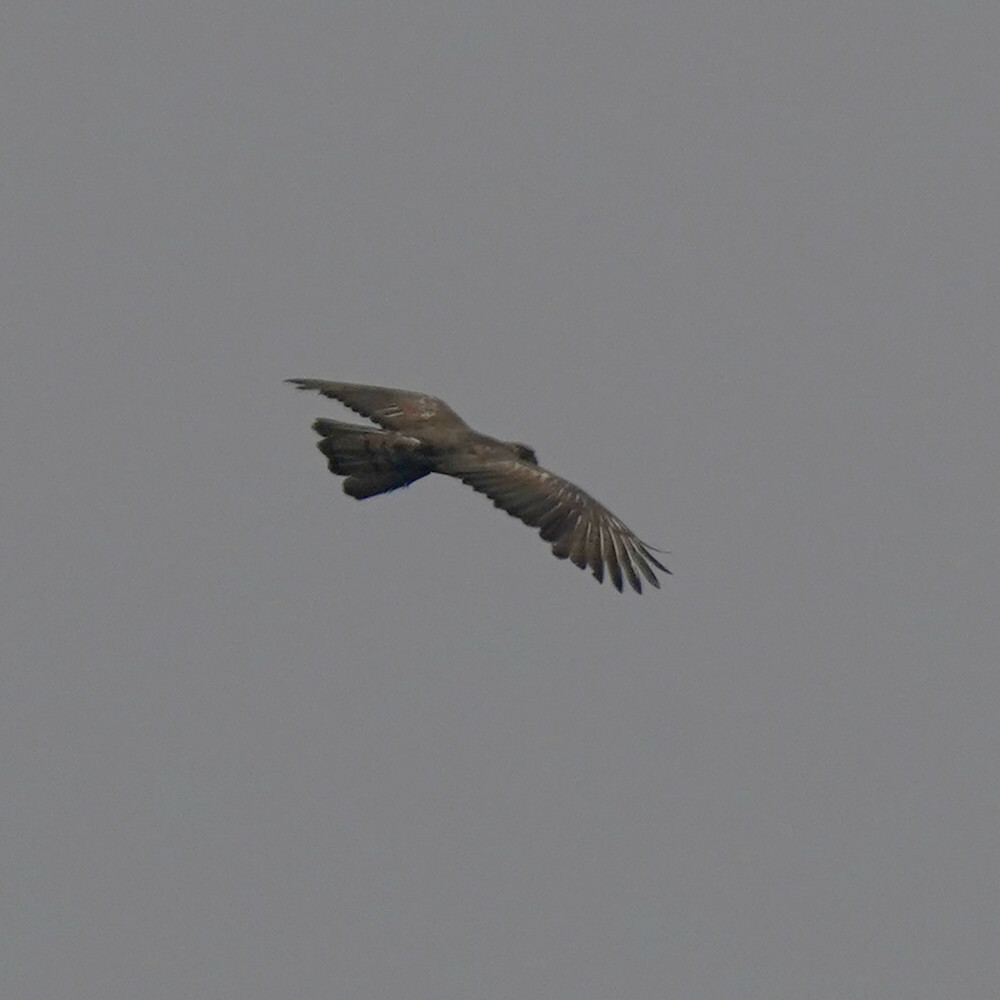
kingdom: Animalia
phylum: Chordata
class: Aves
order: Accipitriformes
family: Accipitridae
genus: Pernis
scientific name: Pernis ptilorhynchus
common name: Crested honey buzzard
